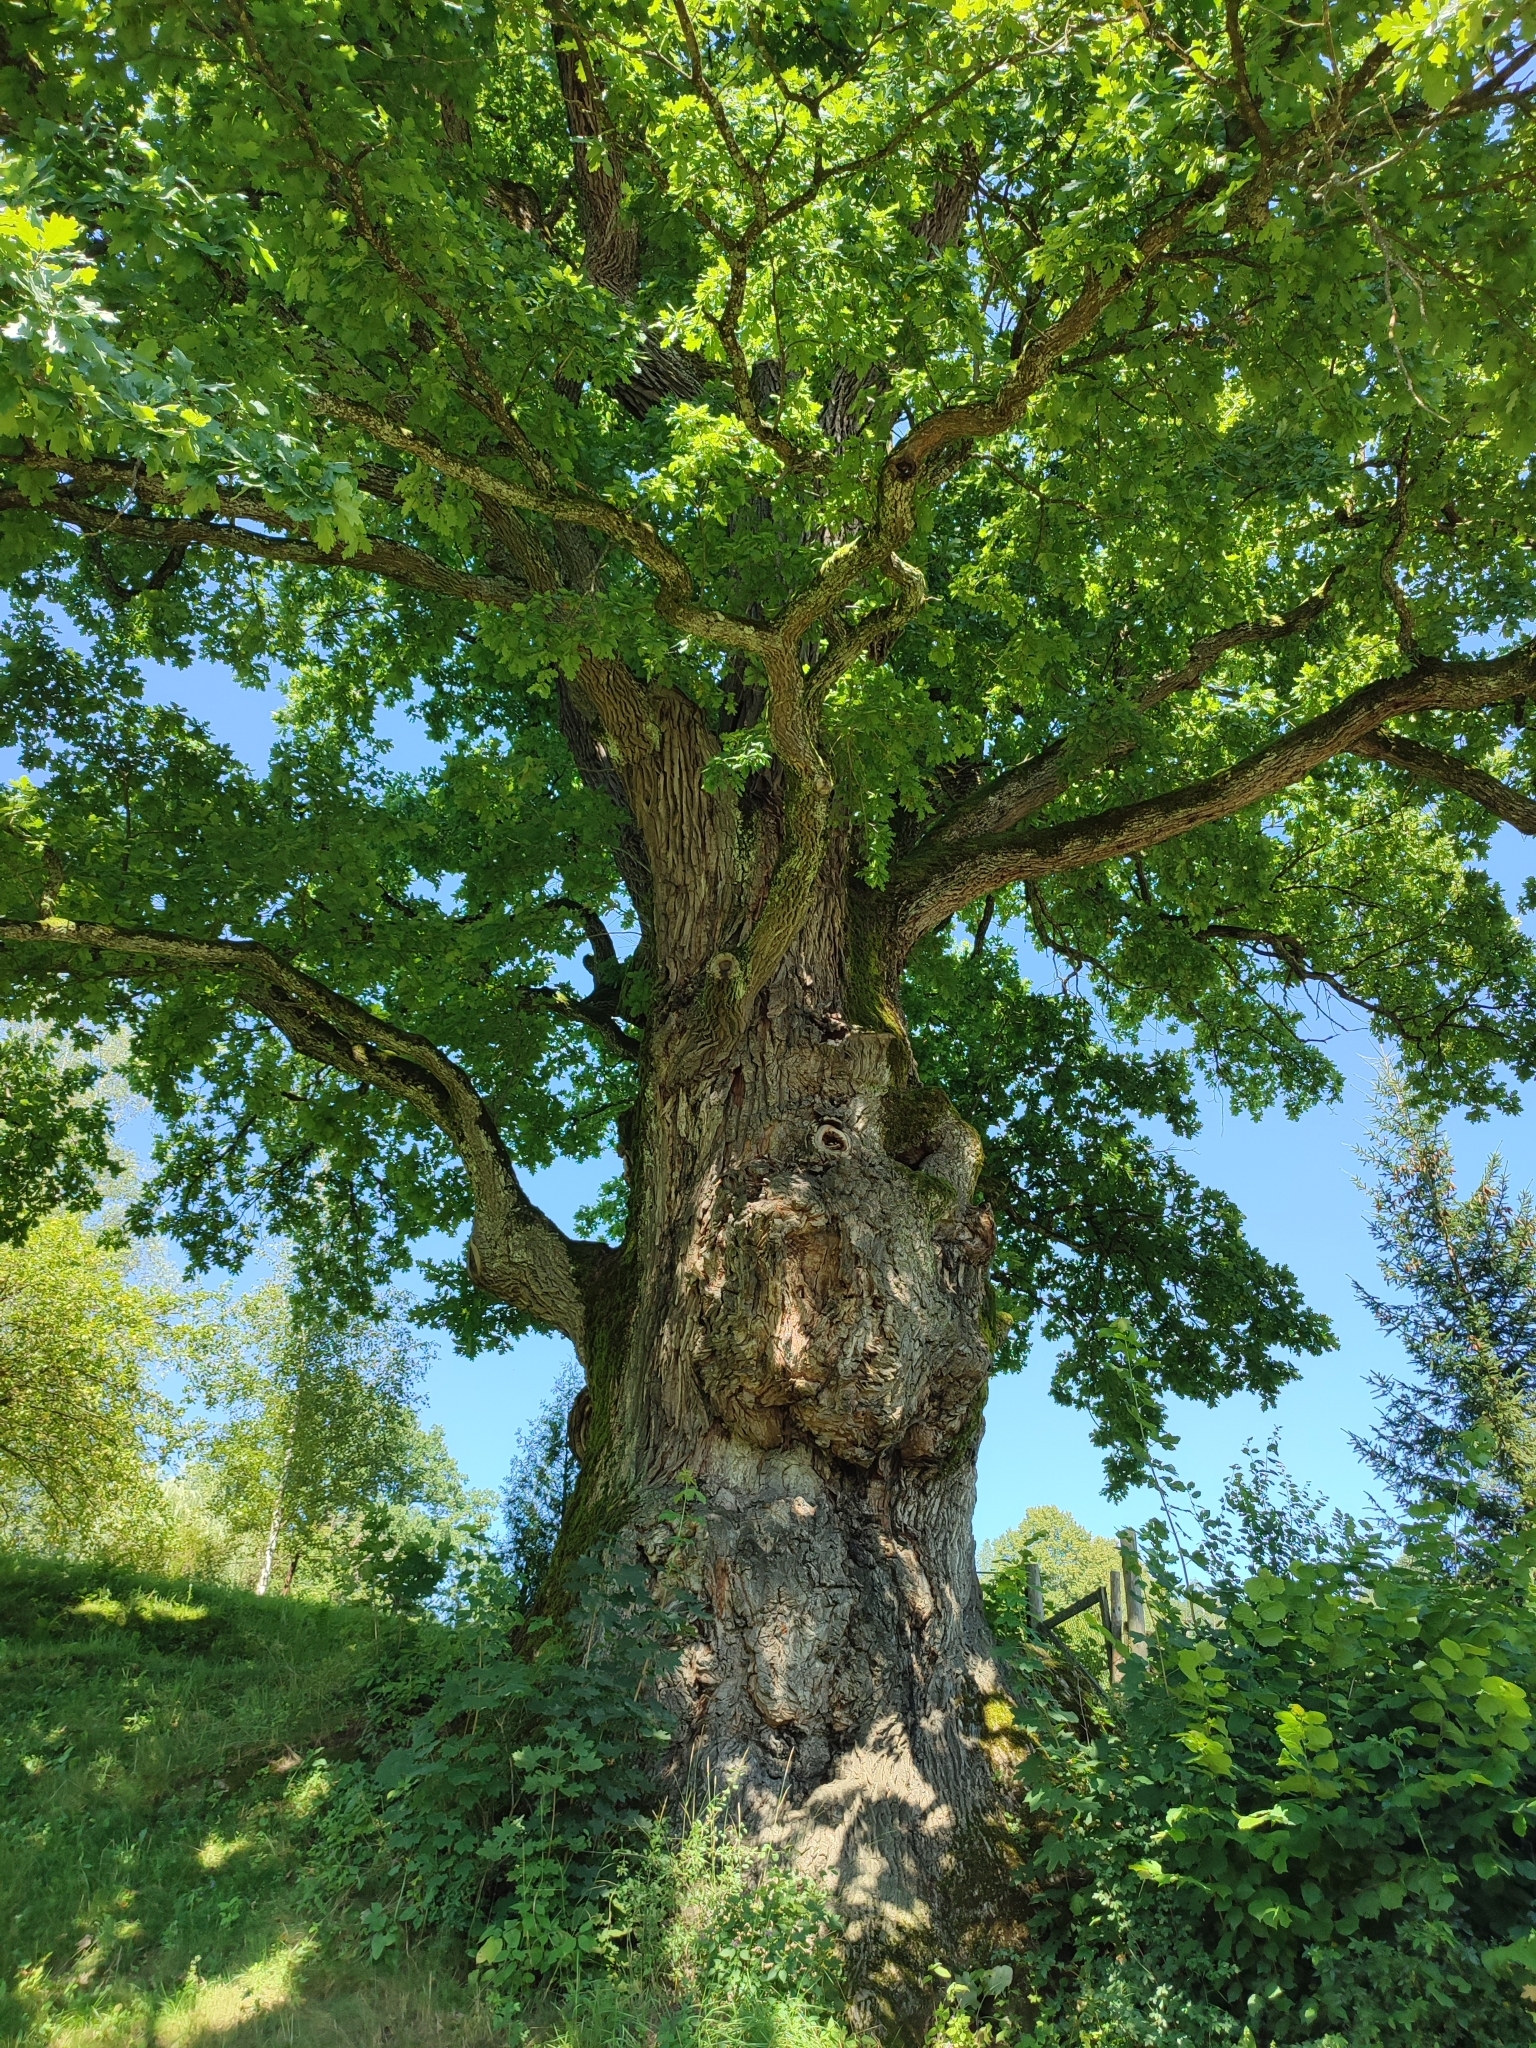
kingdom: Plantae
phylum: Tracheophyta
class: Magnoliopsida
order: Fagales
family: Fagaceae
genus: Quercus
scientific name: Quercus robur
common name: Pedunculate oak
